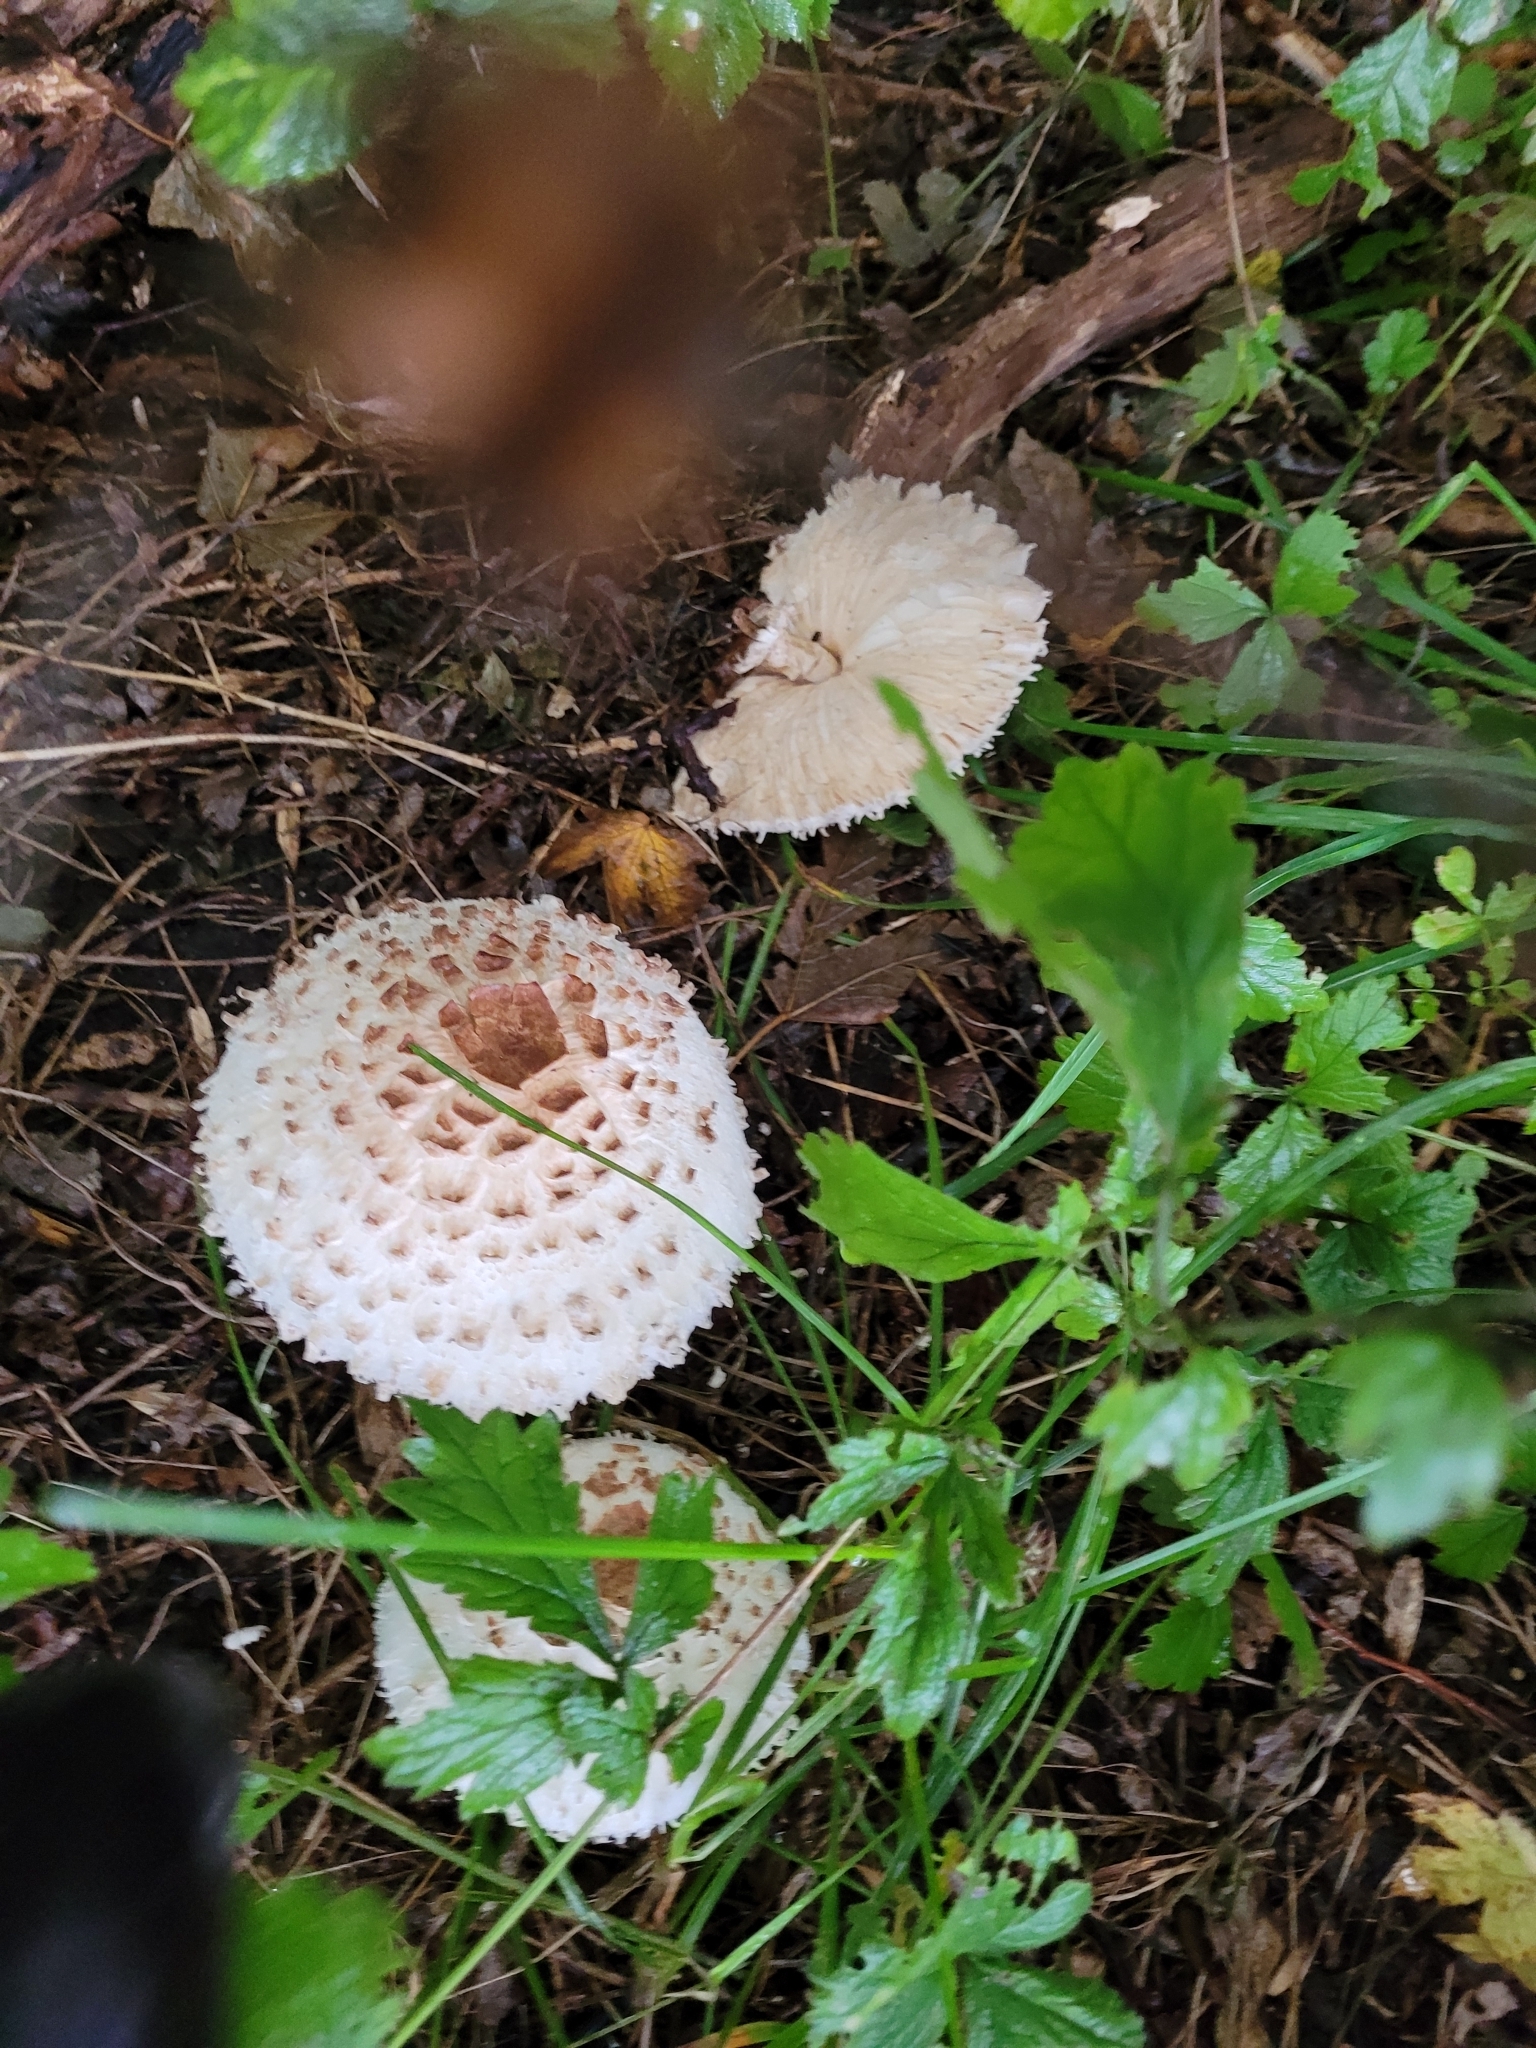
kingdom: Fungi
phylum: Basidiomycota
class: Agaricomycetes
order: Agaricales
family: Agaricaceae
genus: Chlorophyllum
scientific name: Chlorophyllum rhacodes
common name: Shaggy parasol
